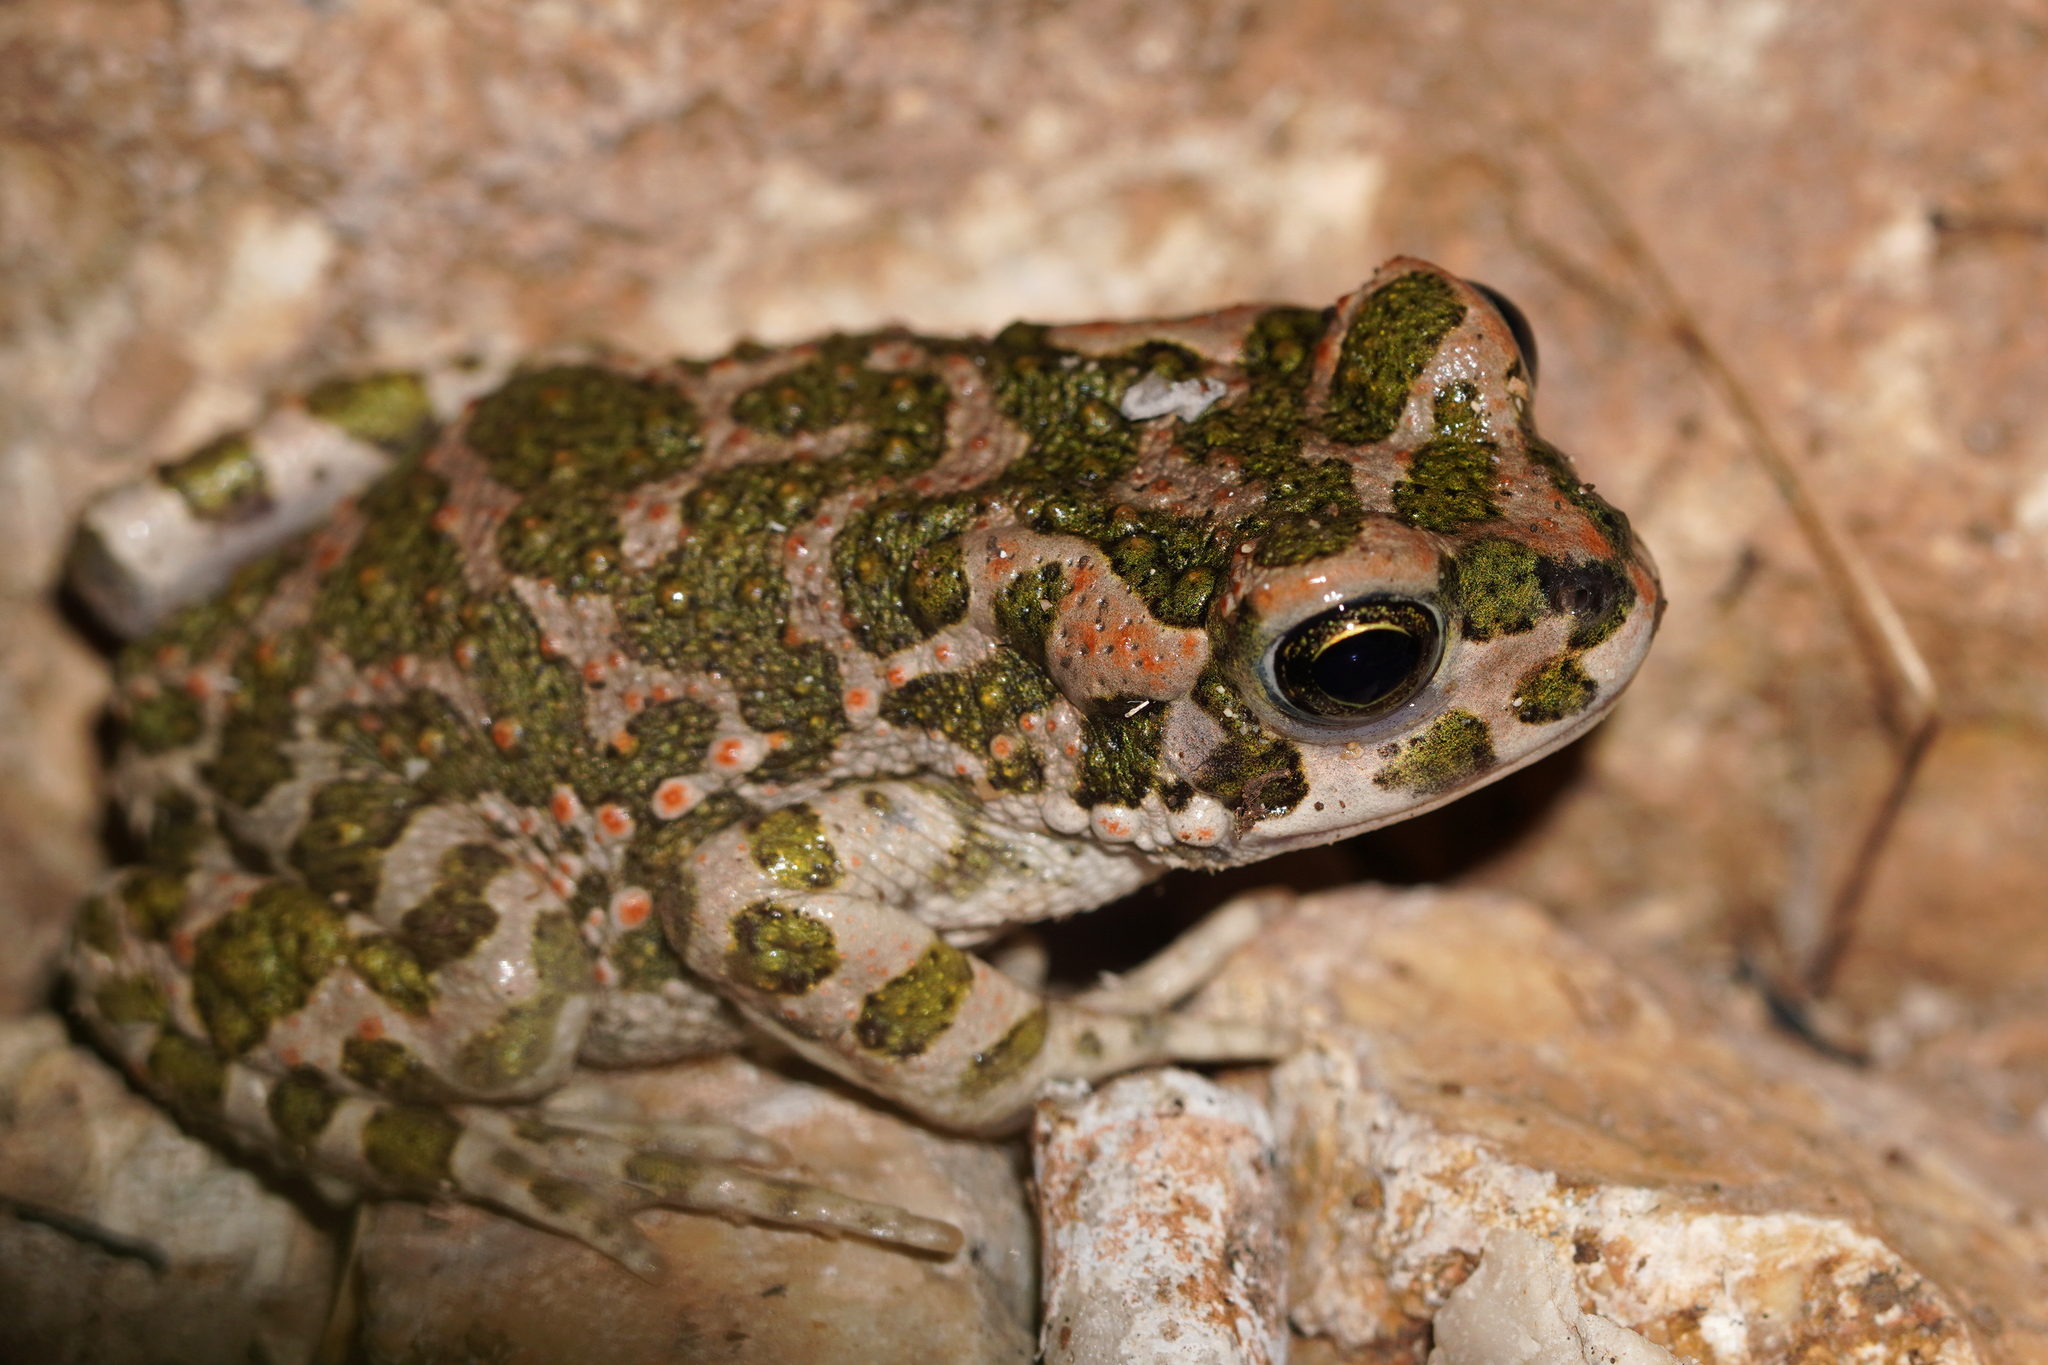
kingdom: Animalia
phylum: Chordata
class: Amphibia
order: Anura
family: Bufonidae
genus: Bufotes
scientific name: Bufotes viridis
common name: European green toad
